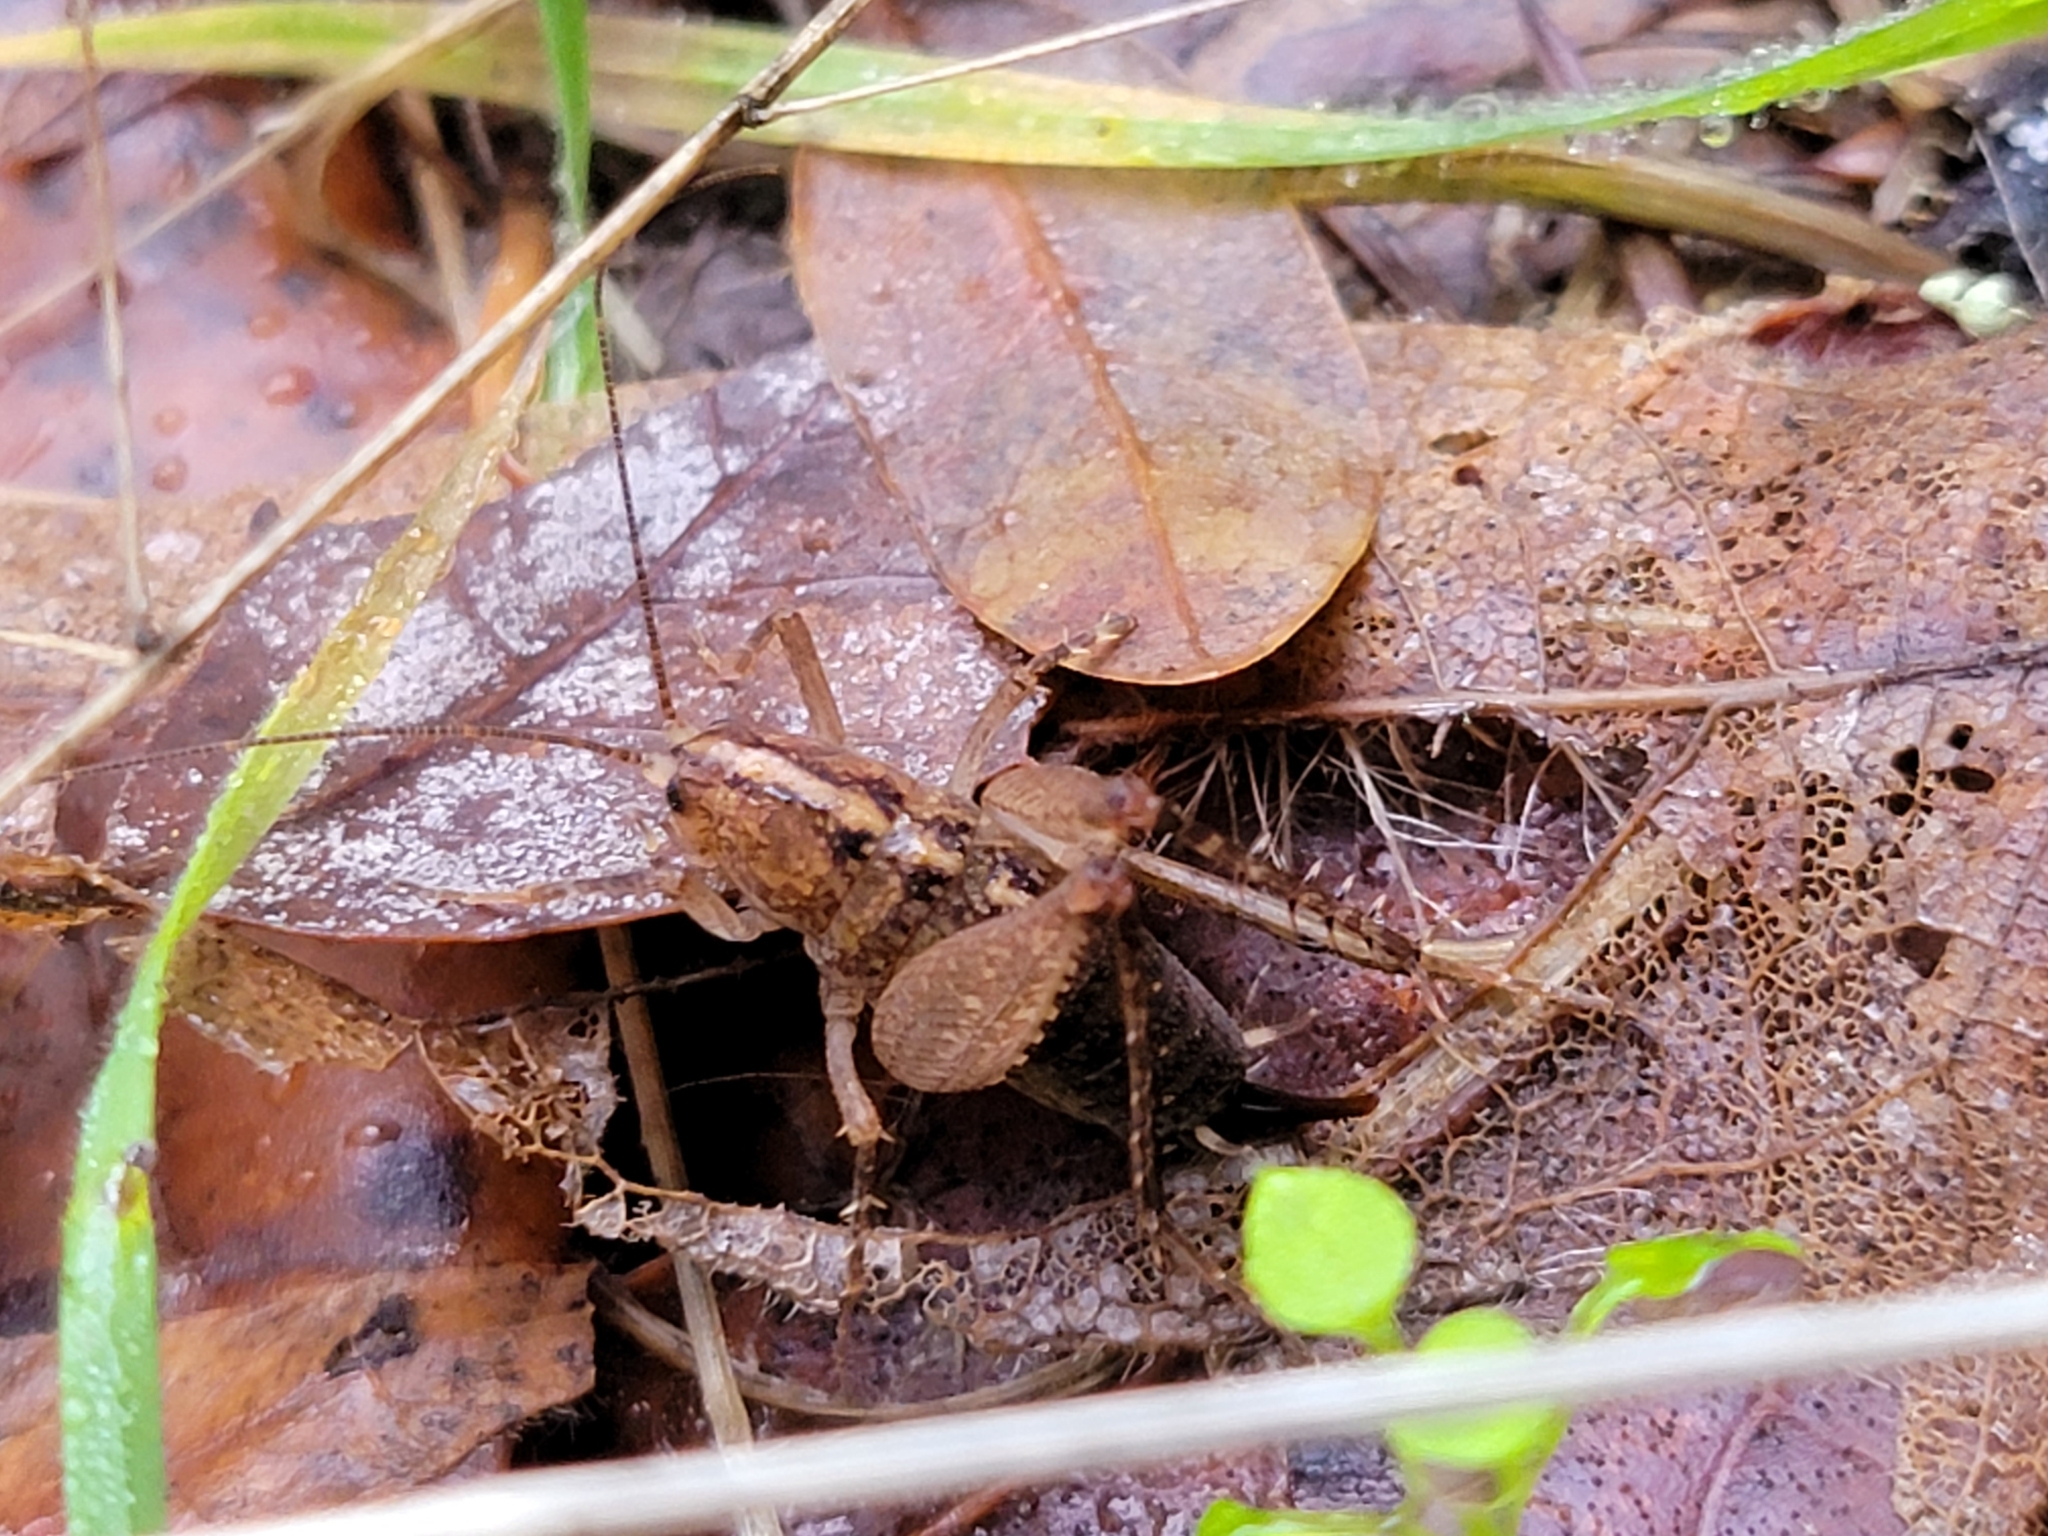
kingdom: Animalia
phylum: Arthropoda
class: Insecta
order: Orthoptera
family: Rhaphidophoridae
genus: Pristoceuthophilus
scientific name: Pristoceuthophilus
